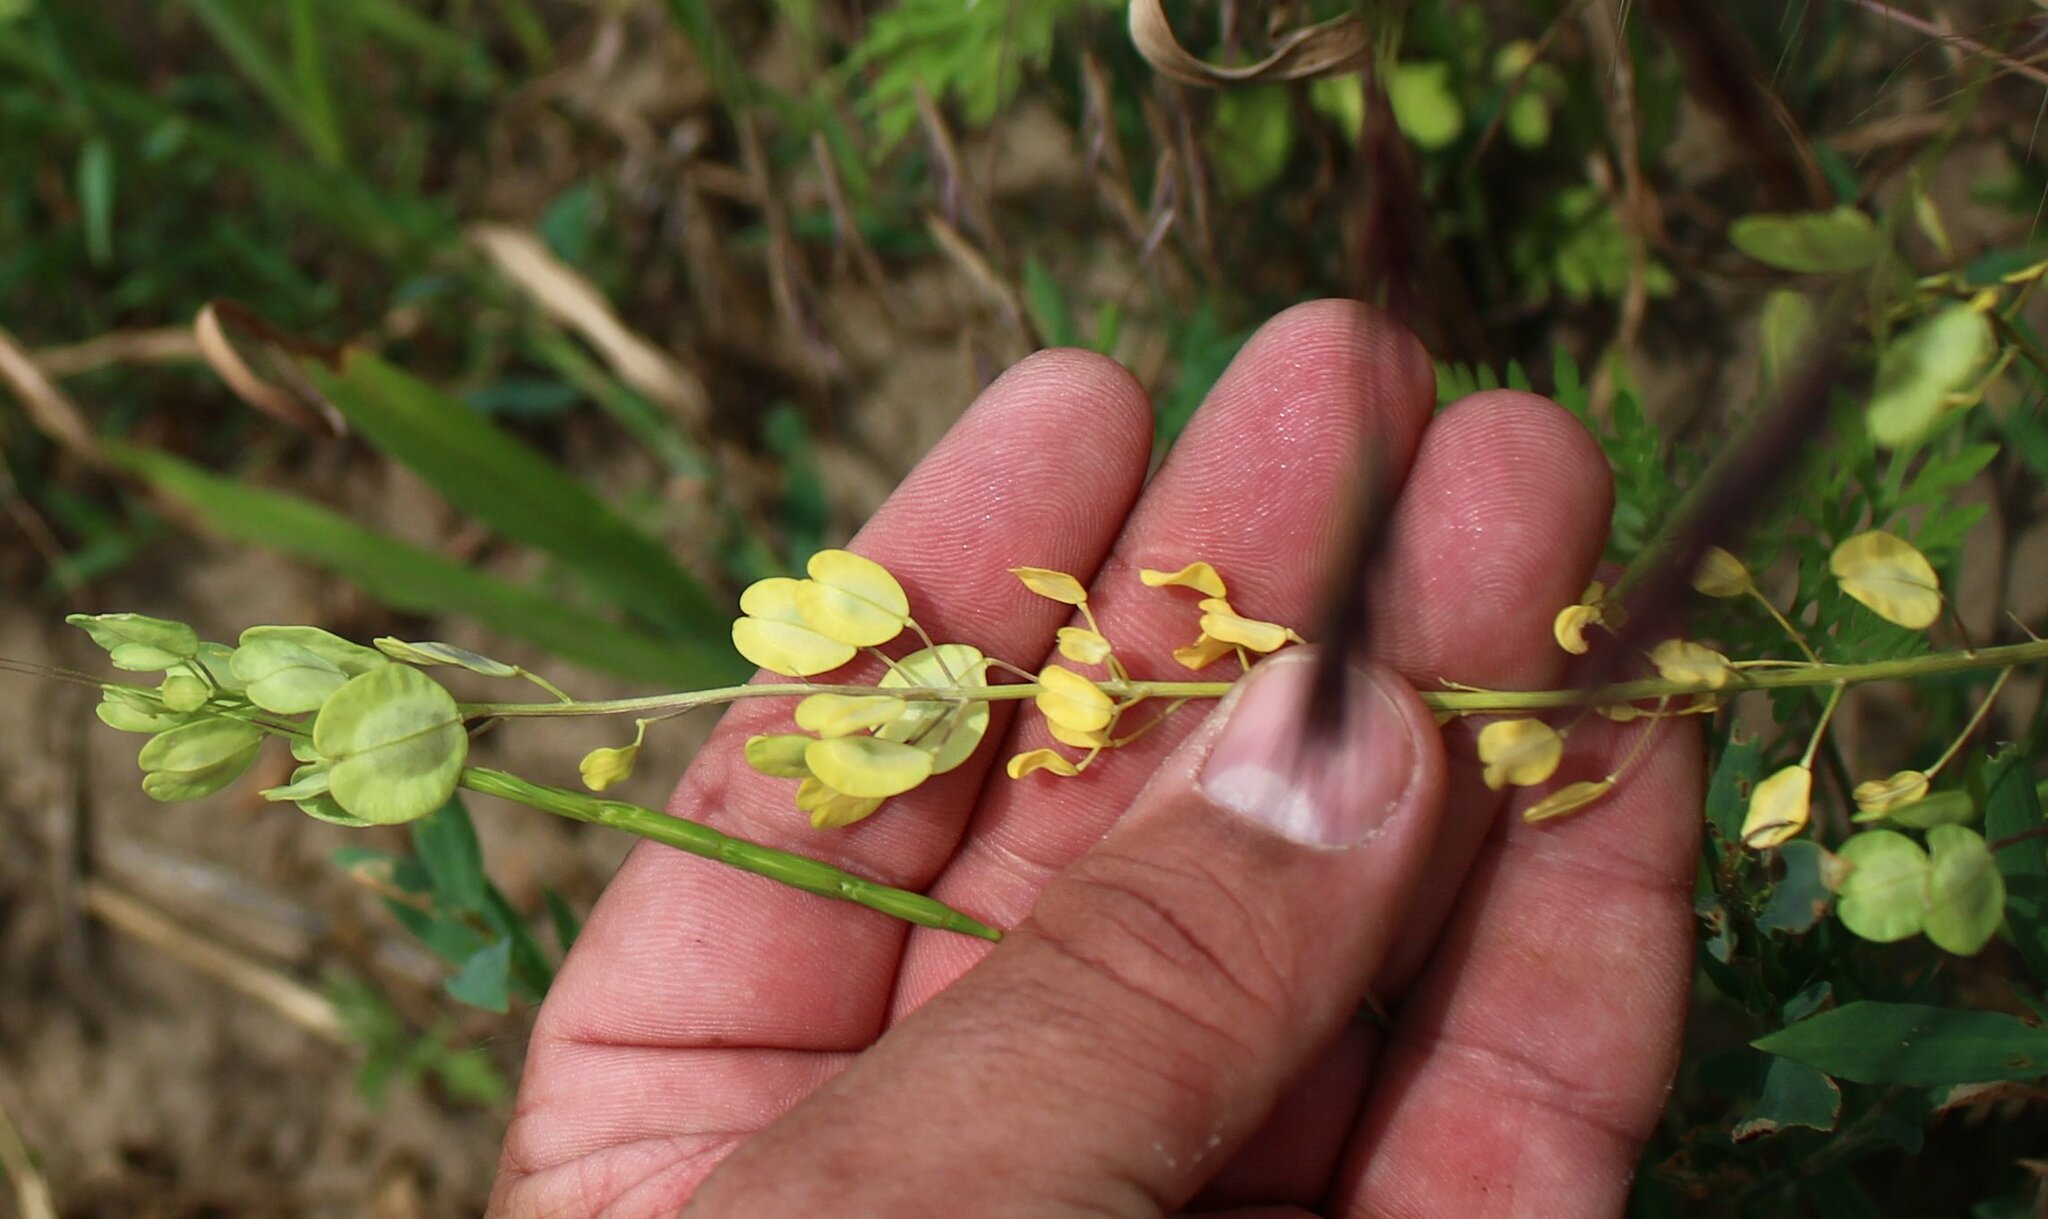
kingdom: Plantae
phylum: Tracheophyta
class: Magnoliopsida
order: Brassicales
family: Brassicaceae
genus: Thlaspi
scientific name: Thlaspi arvense
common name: Field pennycress
